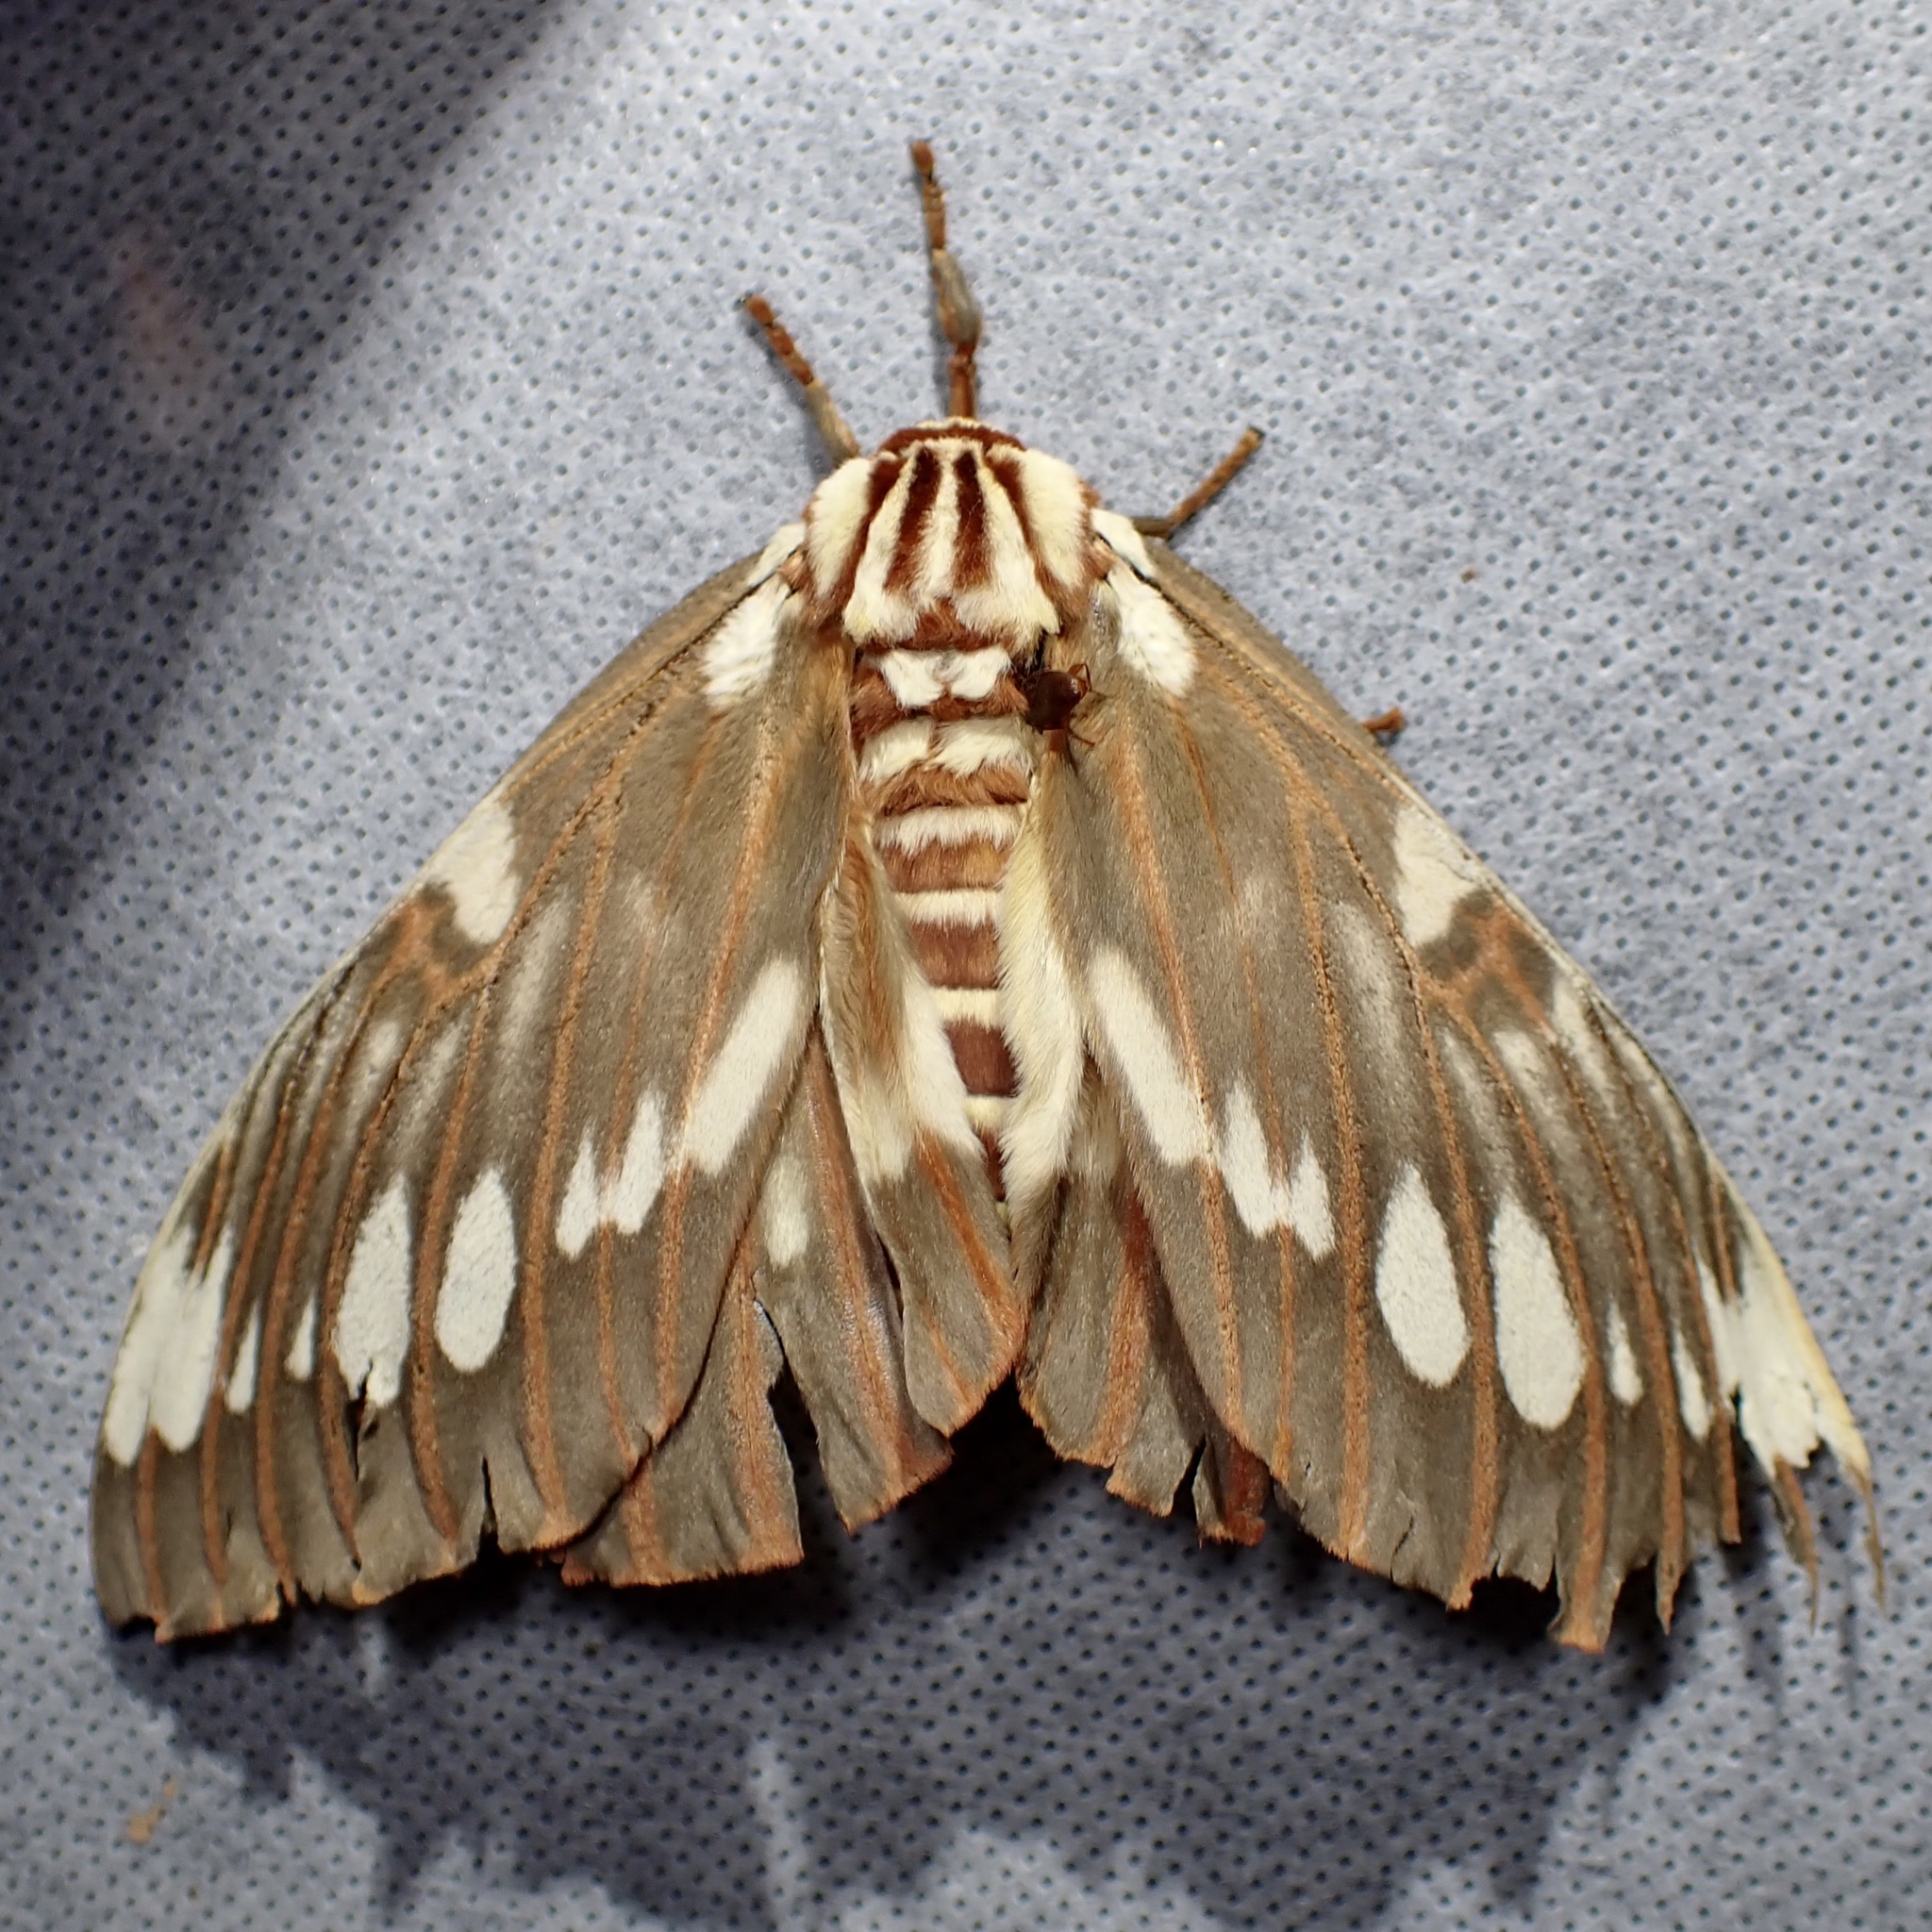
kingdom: Animalia
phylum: Arthropoda
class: Insecta
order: Lepidoptera
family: Saturniidae
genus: Citheronia
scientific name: Citheronia splendens
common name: Splendid royal moth
